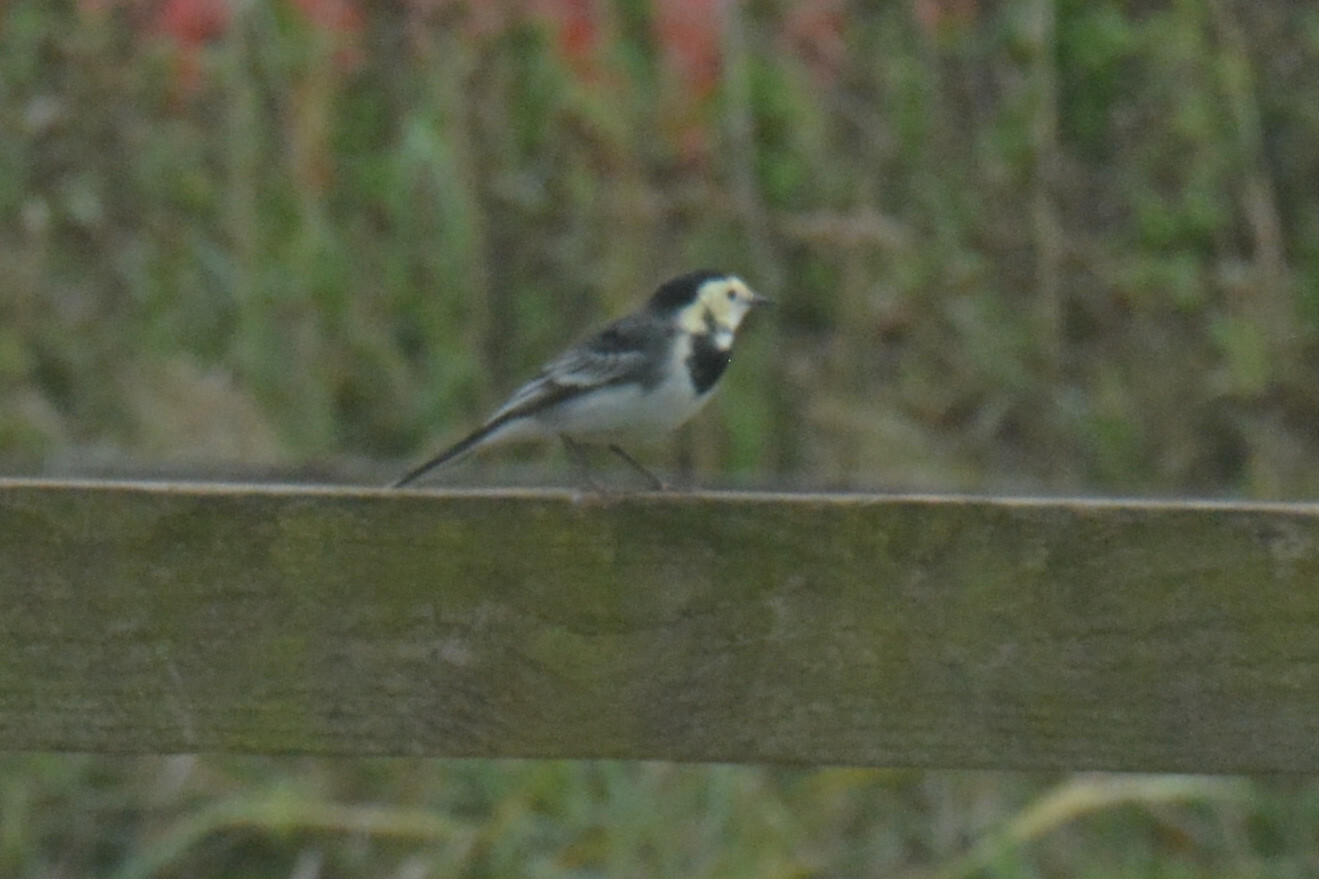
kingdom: Animalia
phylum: Chordata
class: Aves
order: Passeriformes
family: Motacillidae
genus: Motacilla
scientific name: Motacilla alba
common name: White wagtail
